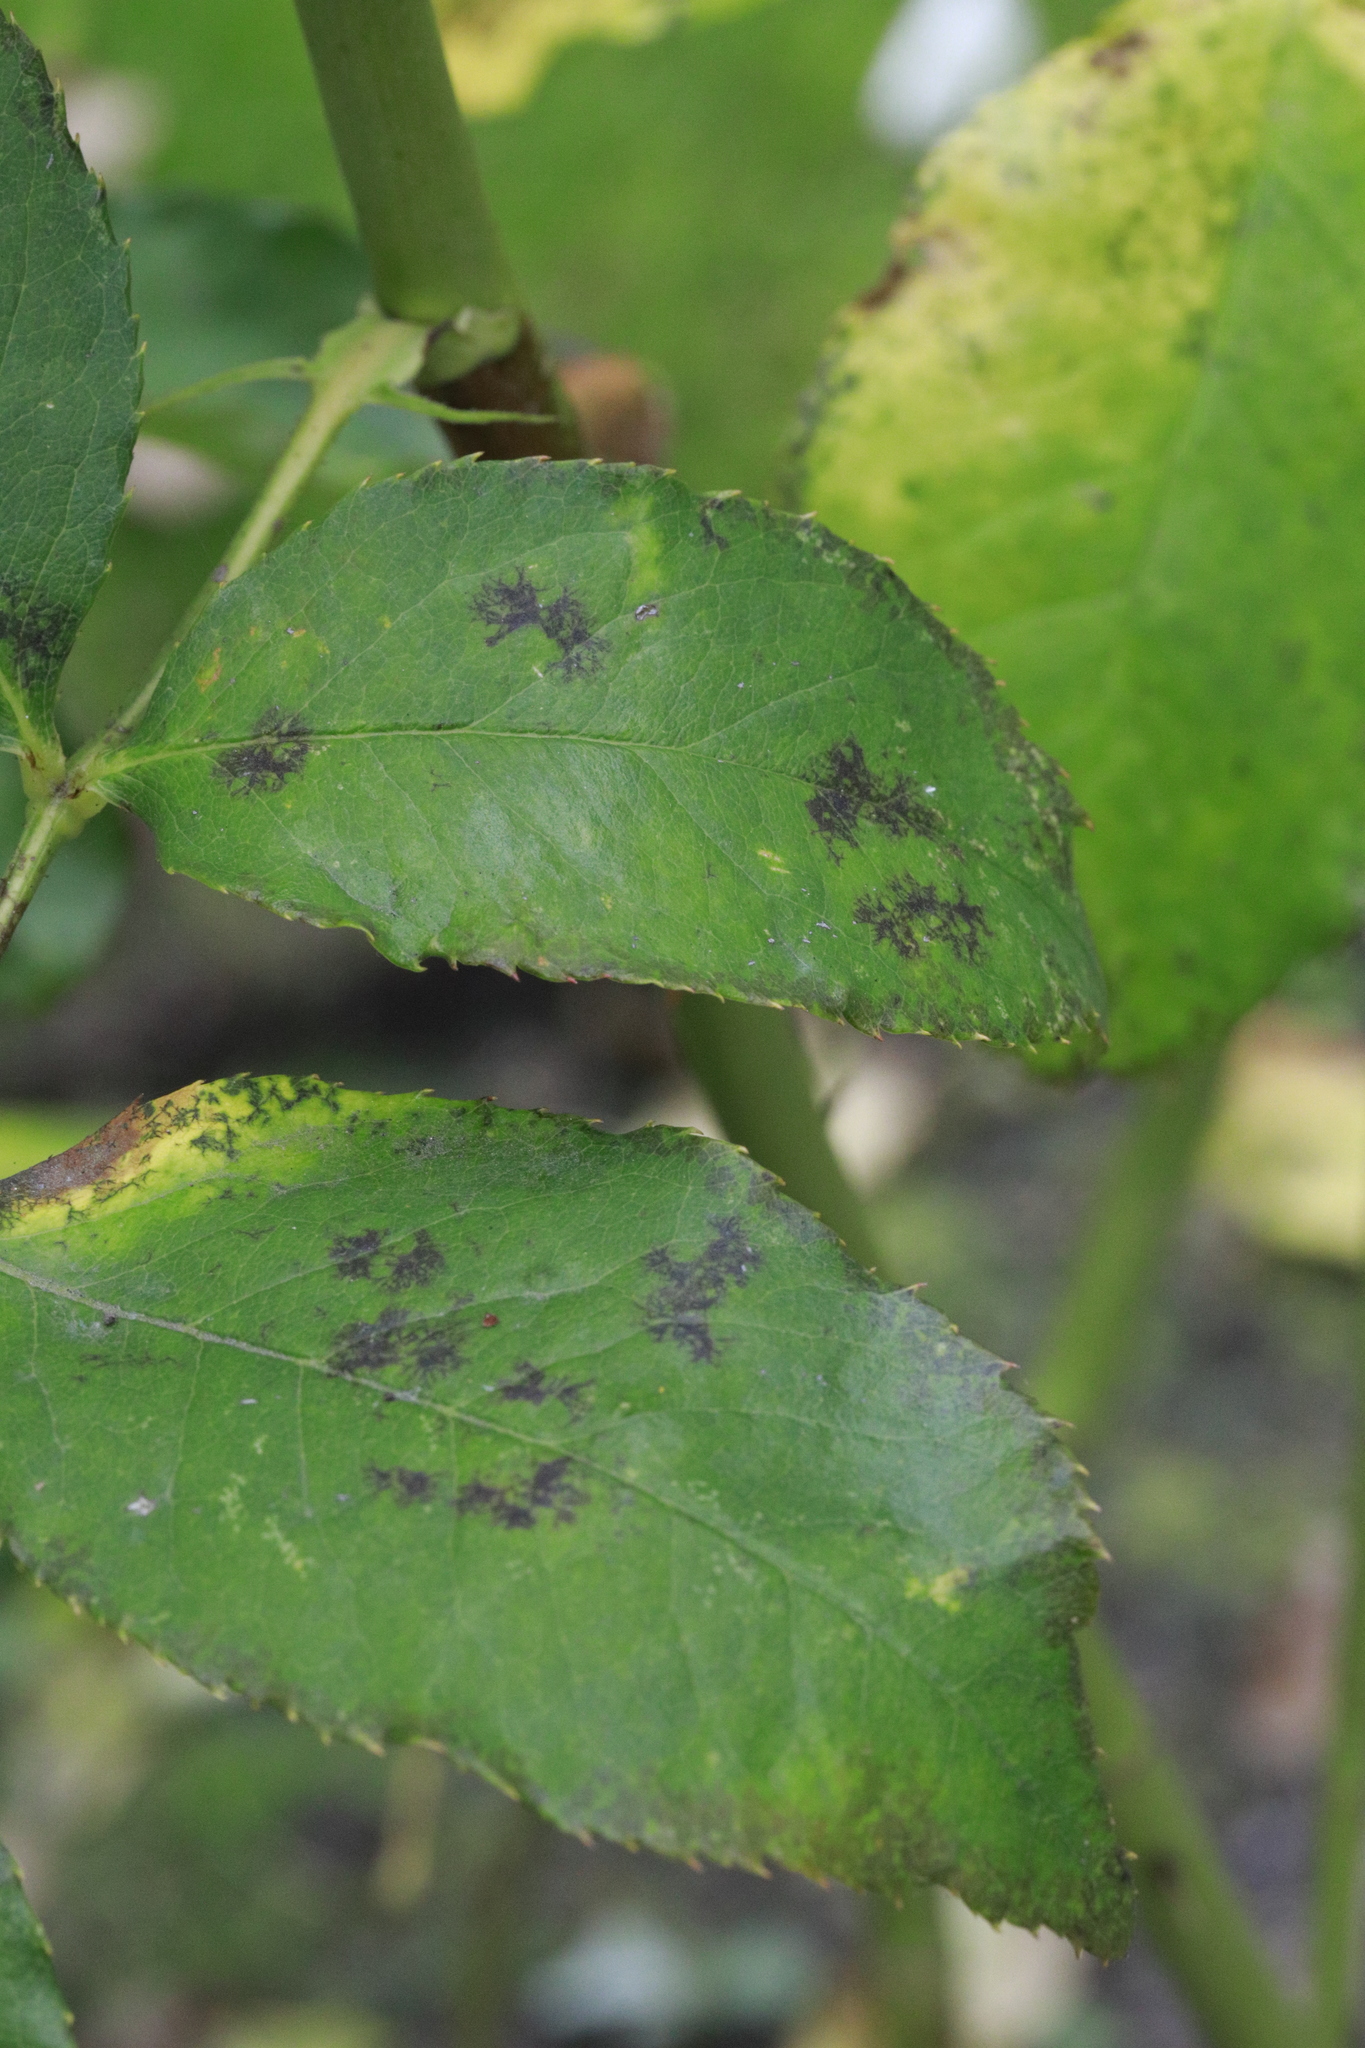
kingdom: Fungi
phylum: Ascomycota
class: Leotiomycetes
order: Helotiales
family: Drepanopezizaceae
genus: Diplocarpon
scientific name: Diplocarpon rosae
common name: Rose black-spot
